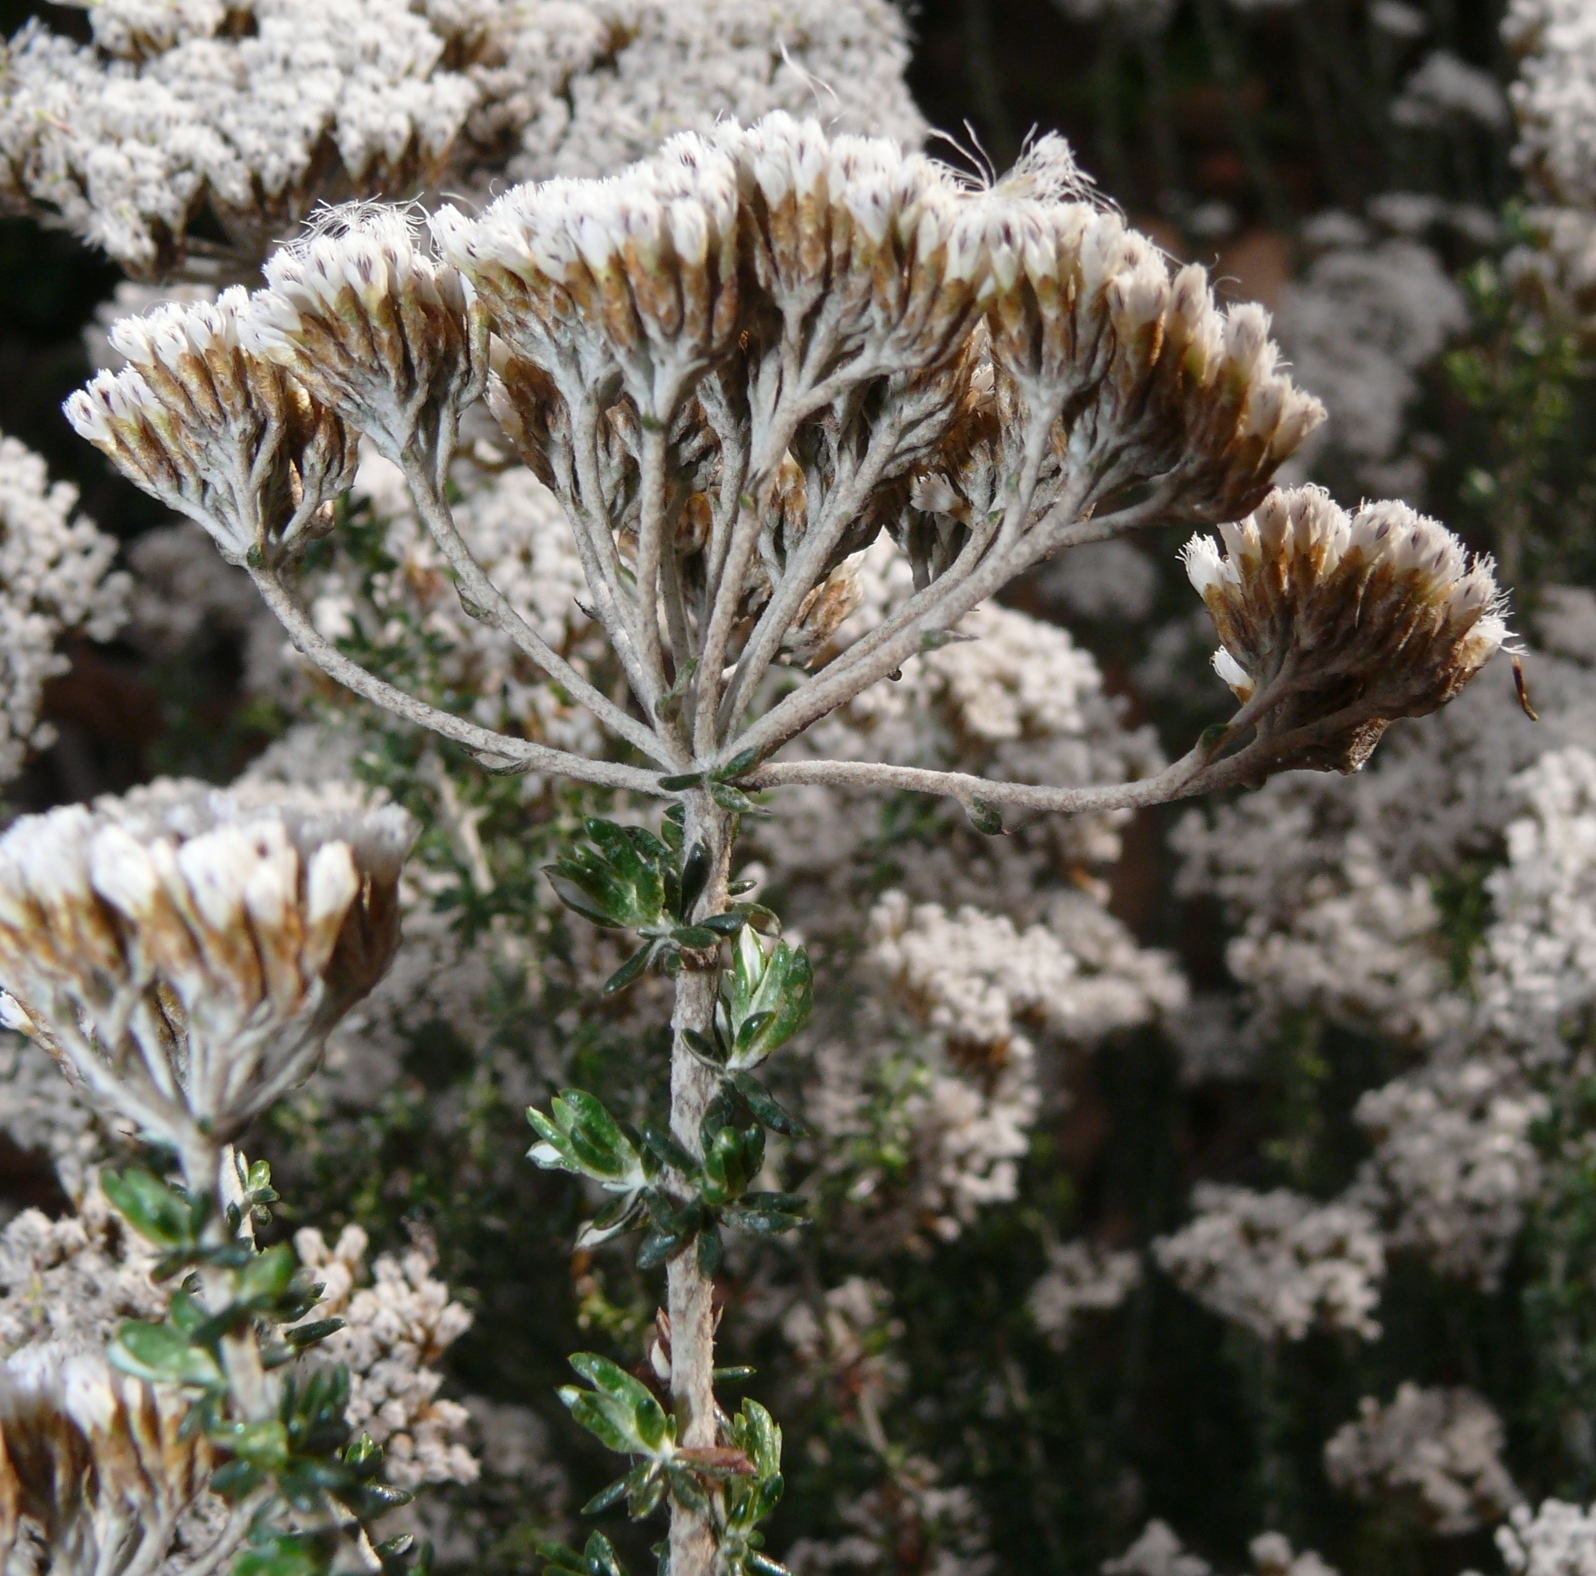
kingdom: Plantae
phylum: Tracheophyta
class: Magnoliopsida
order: Asterales
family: Asteraceae
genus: Metalasia
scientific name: Metalasia densa
